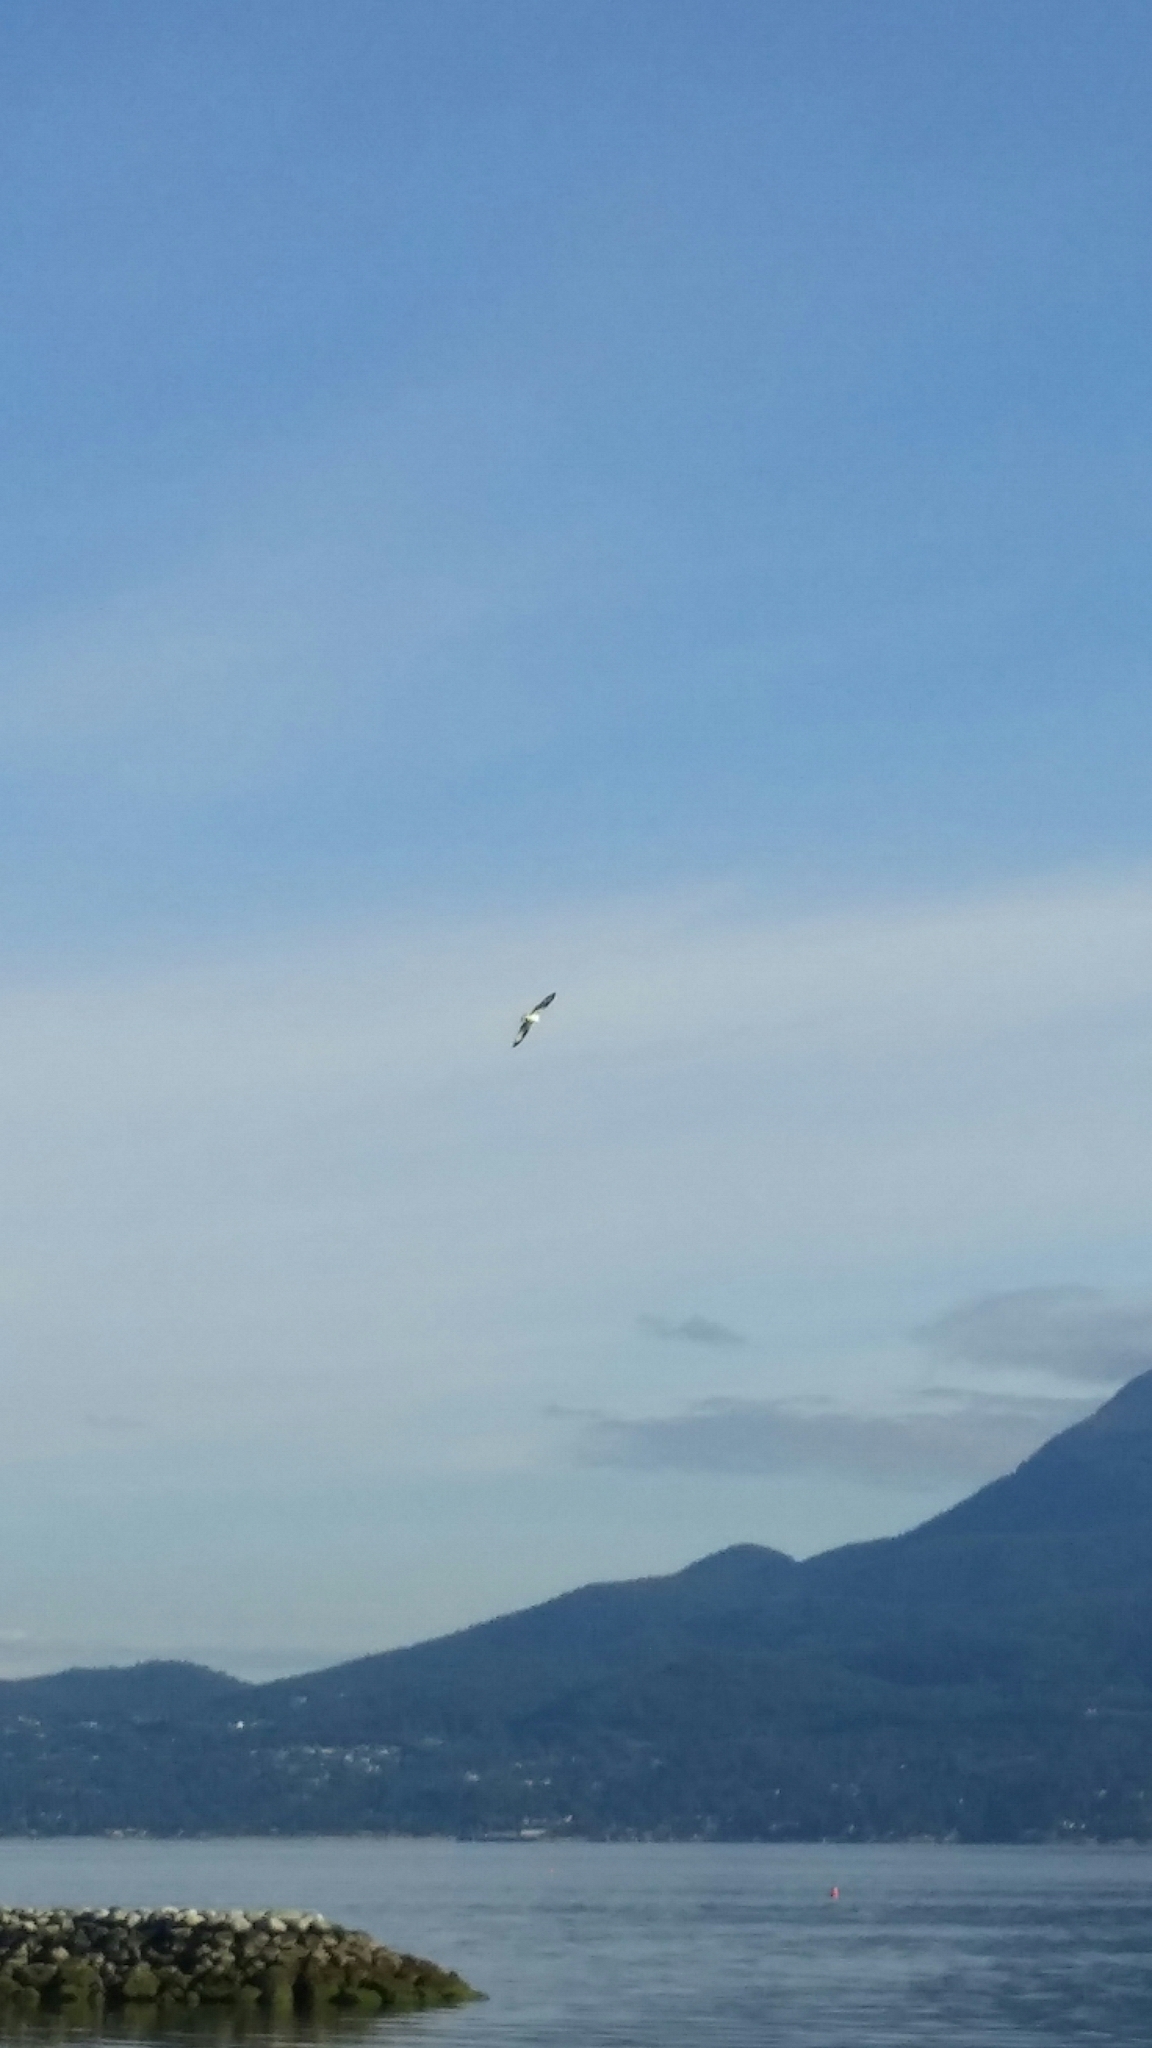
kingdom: Animalia
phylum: Chordata
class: Aves
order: Accipitriformes
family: Pandionidae
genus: Pandion
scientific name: Pandion haliaetus
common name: Osprey
